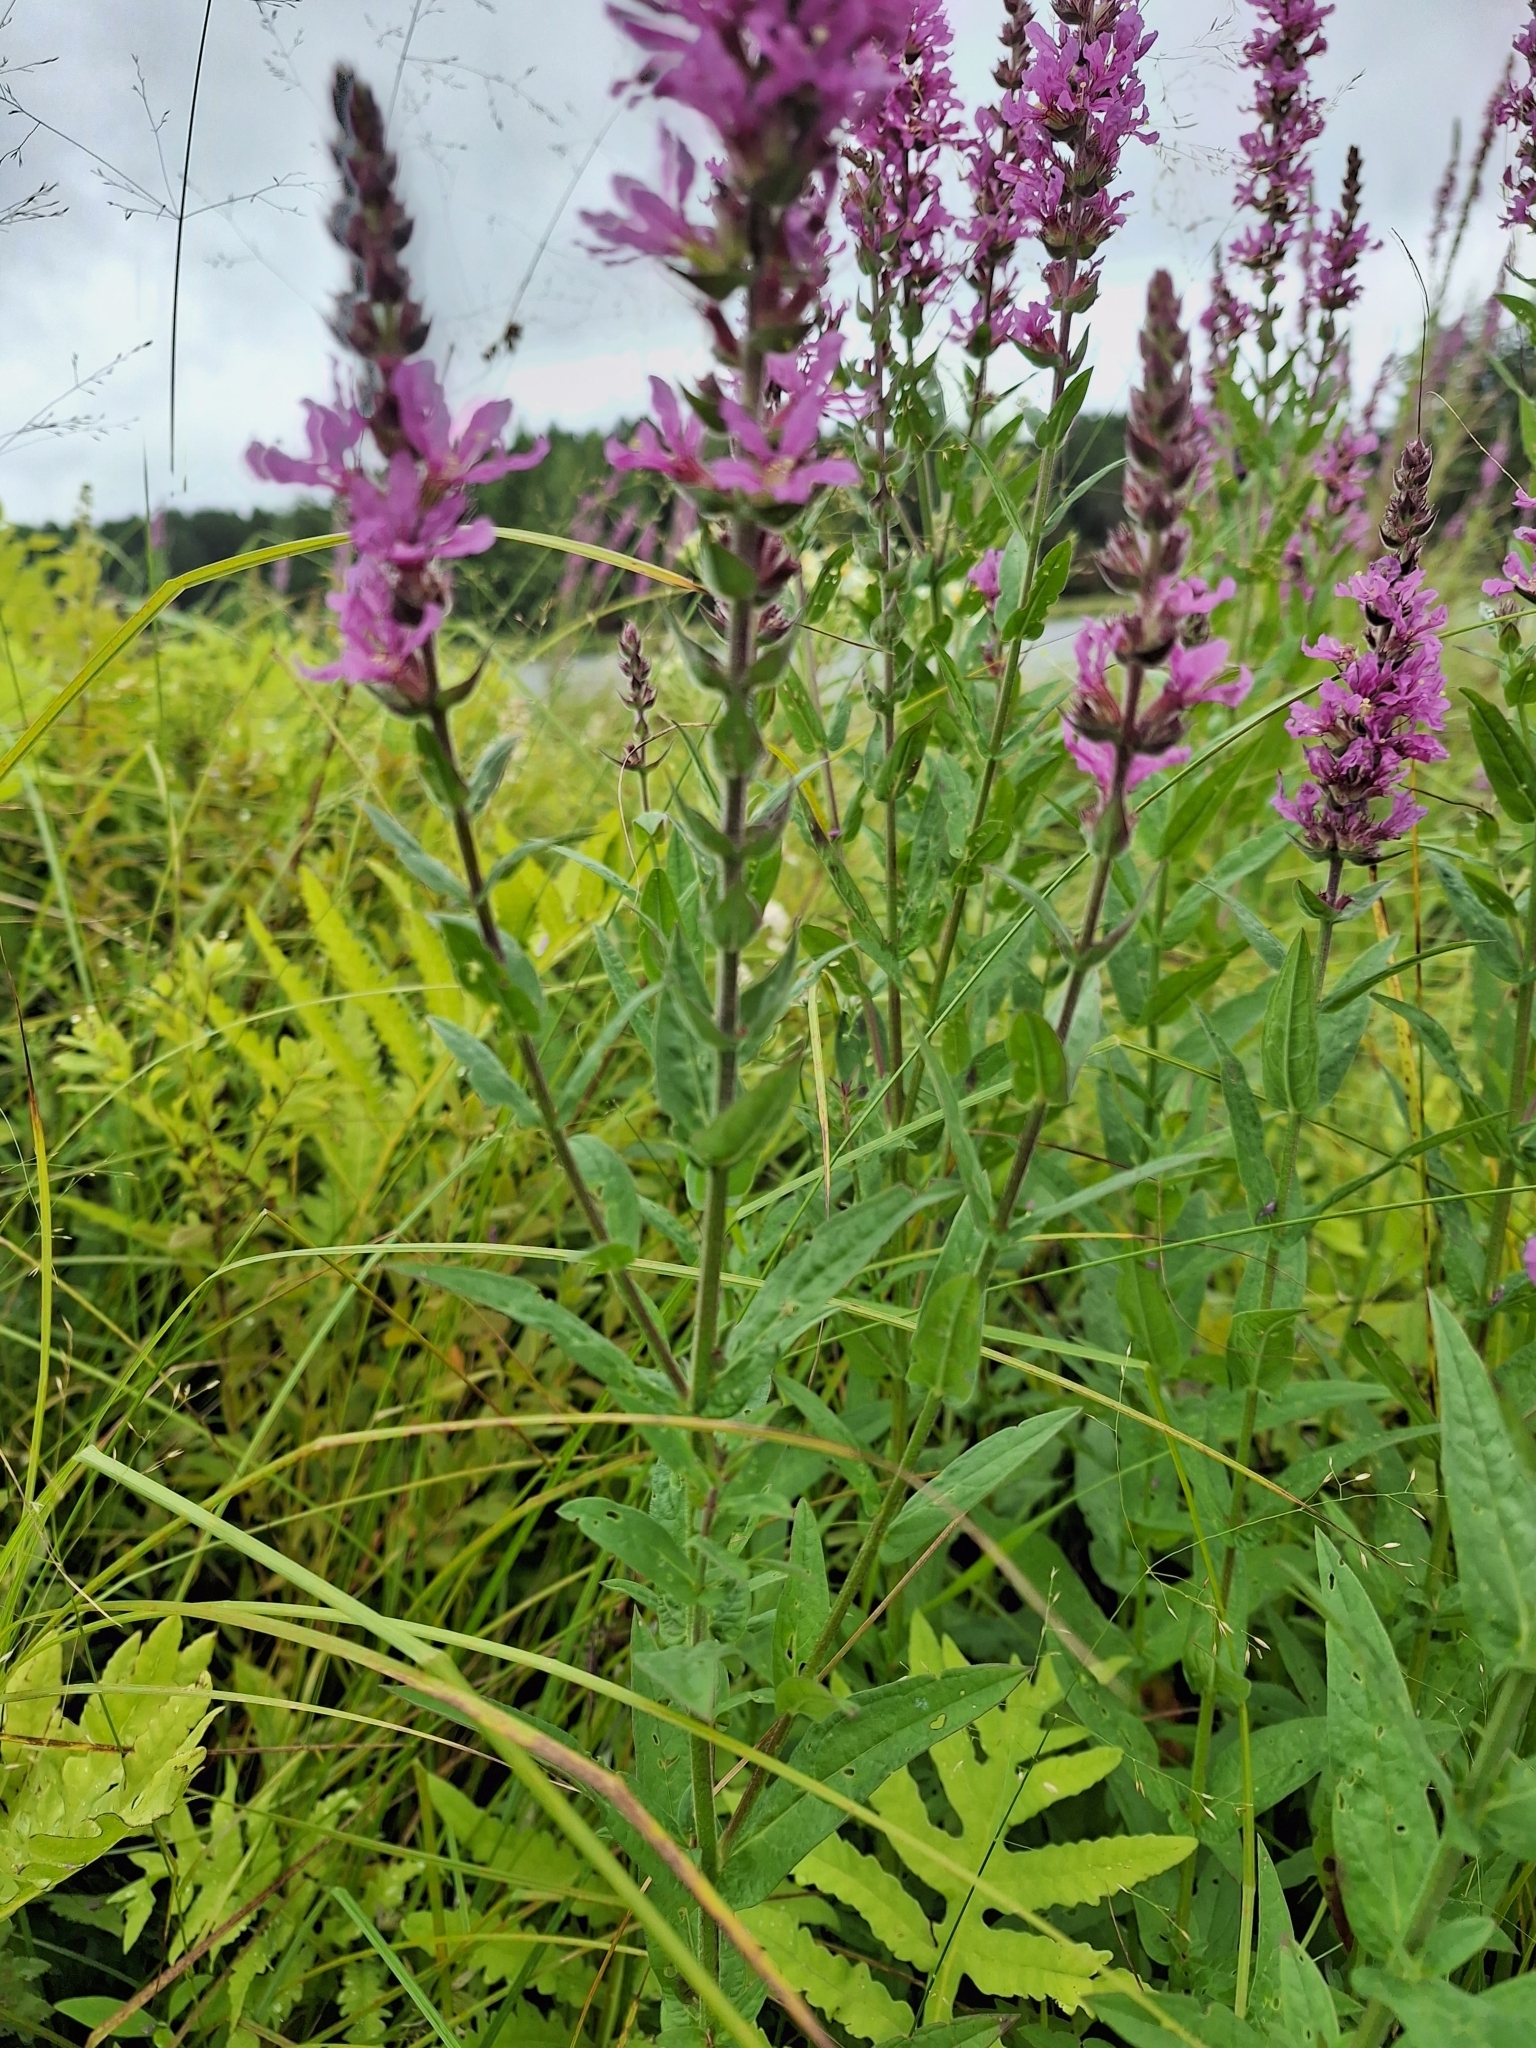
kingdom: Plantae
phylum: Tracheophyta
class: Magnoliopsida
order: Myrtales
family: Lythraceae
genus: Lythrum
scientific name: Lythrum salicaria
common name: Purple loosestrife
